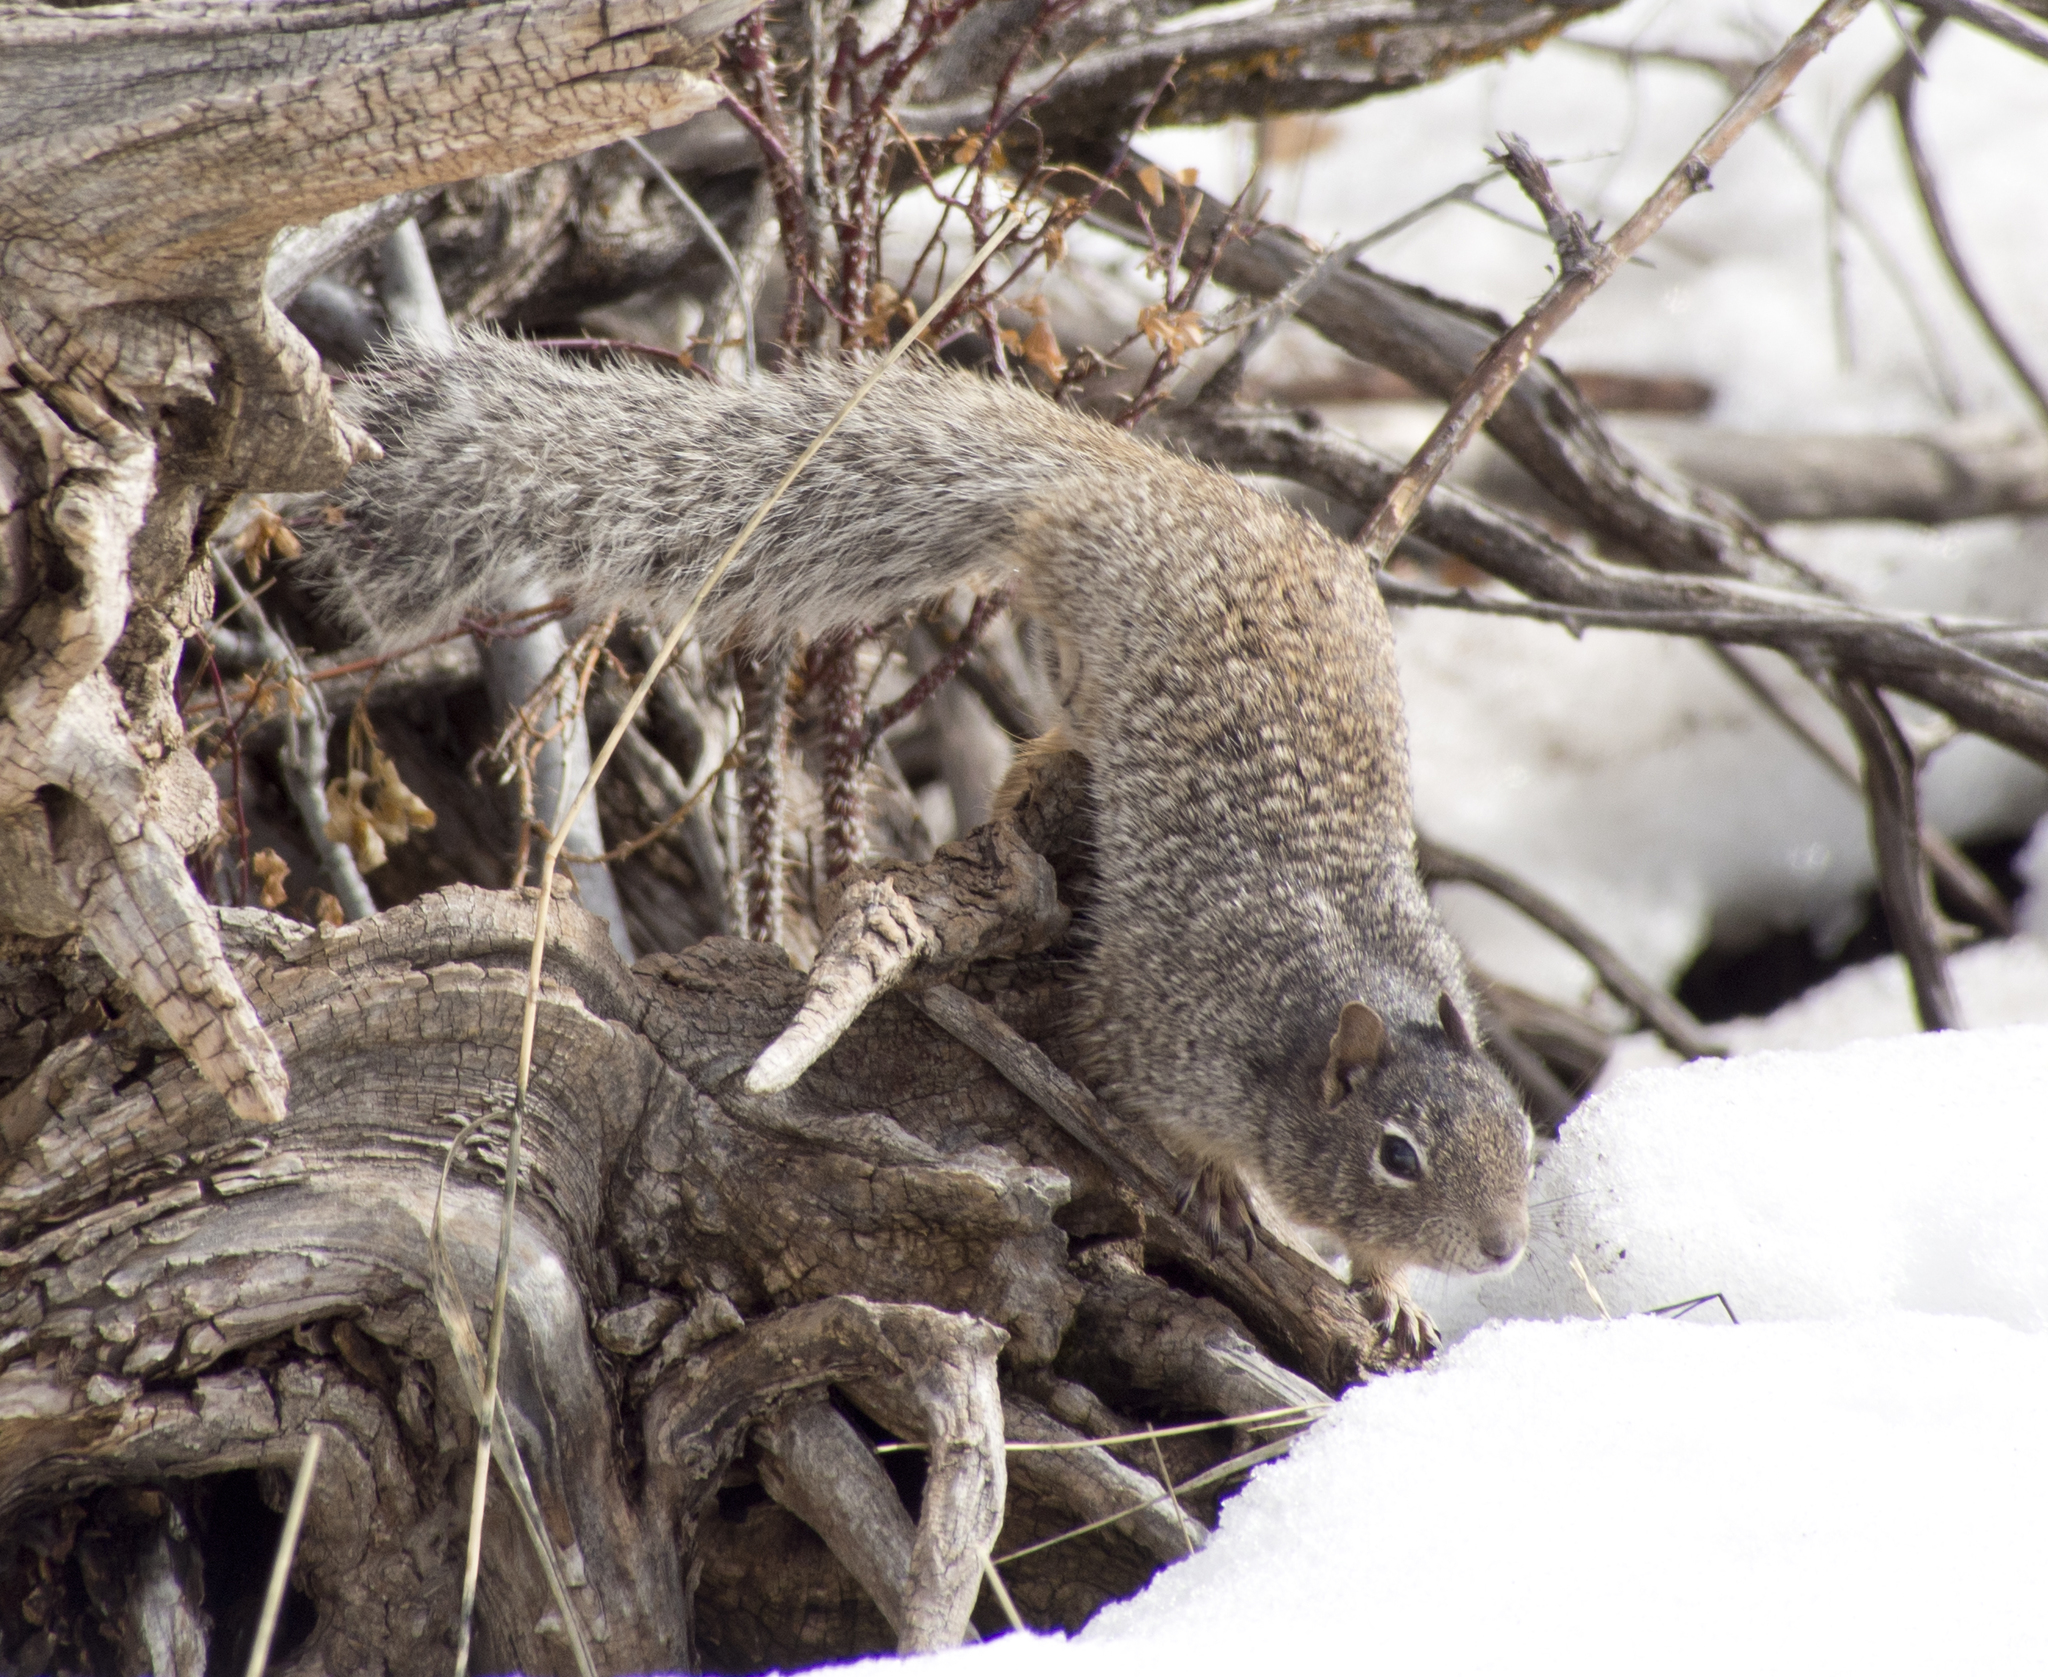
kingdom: Animalia
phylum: Chordata
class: Mammalia
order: Rodentia
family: Sciuridae
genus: Otospermophilus
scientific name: Otospermophilus variegatus
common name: Rock squirrel
